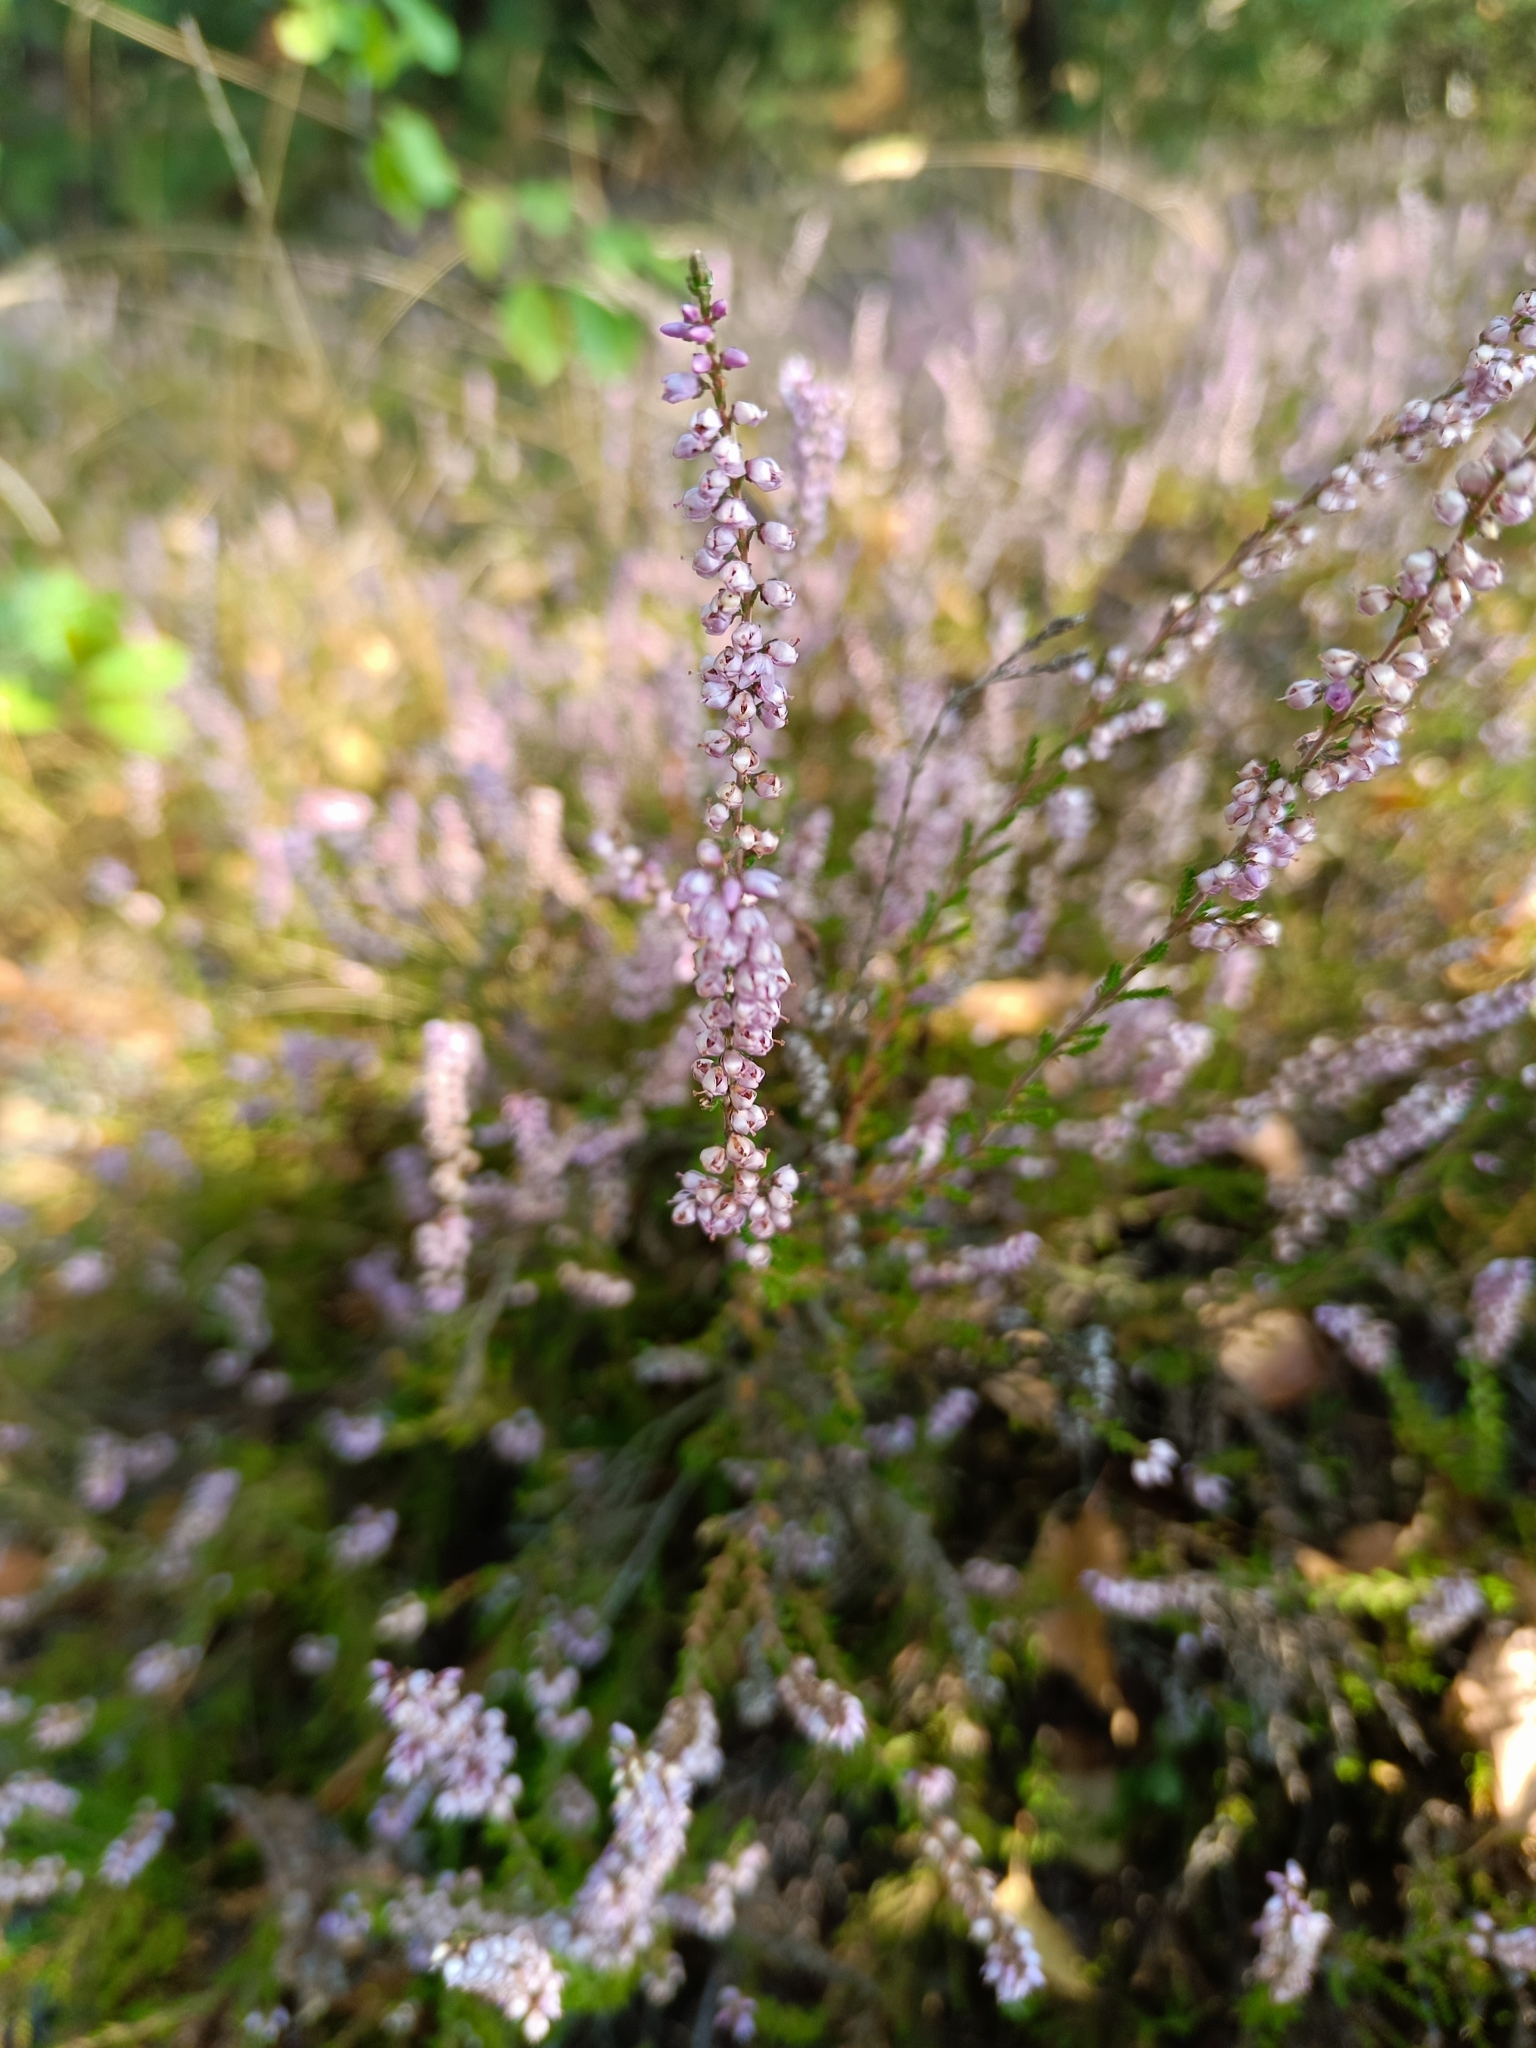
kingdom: Plantae
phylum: Tracheophyta
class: Magnoliopsida
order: Ericales
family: Ericaceae
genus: Calluna
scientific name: Calluna vulgaris
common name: Heather
